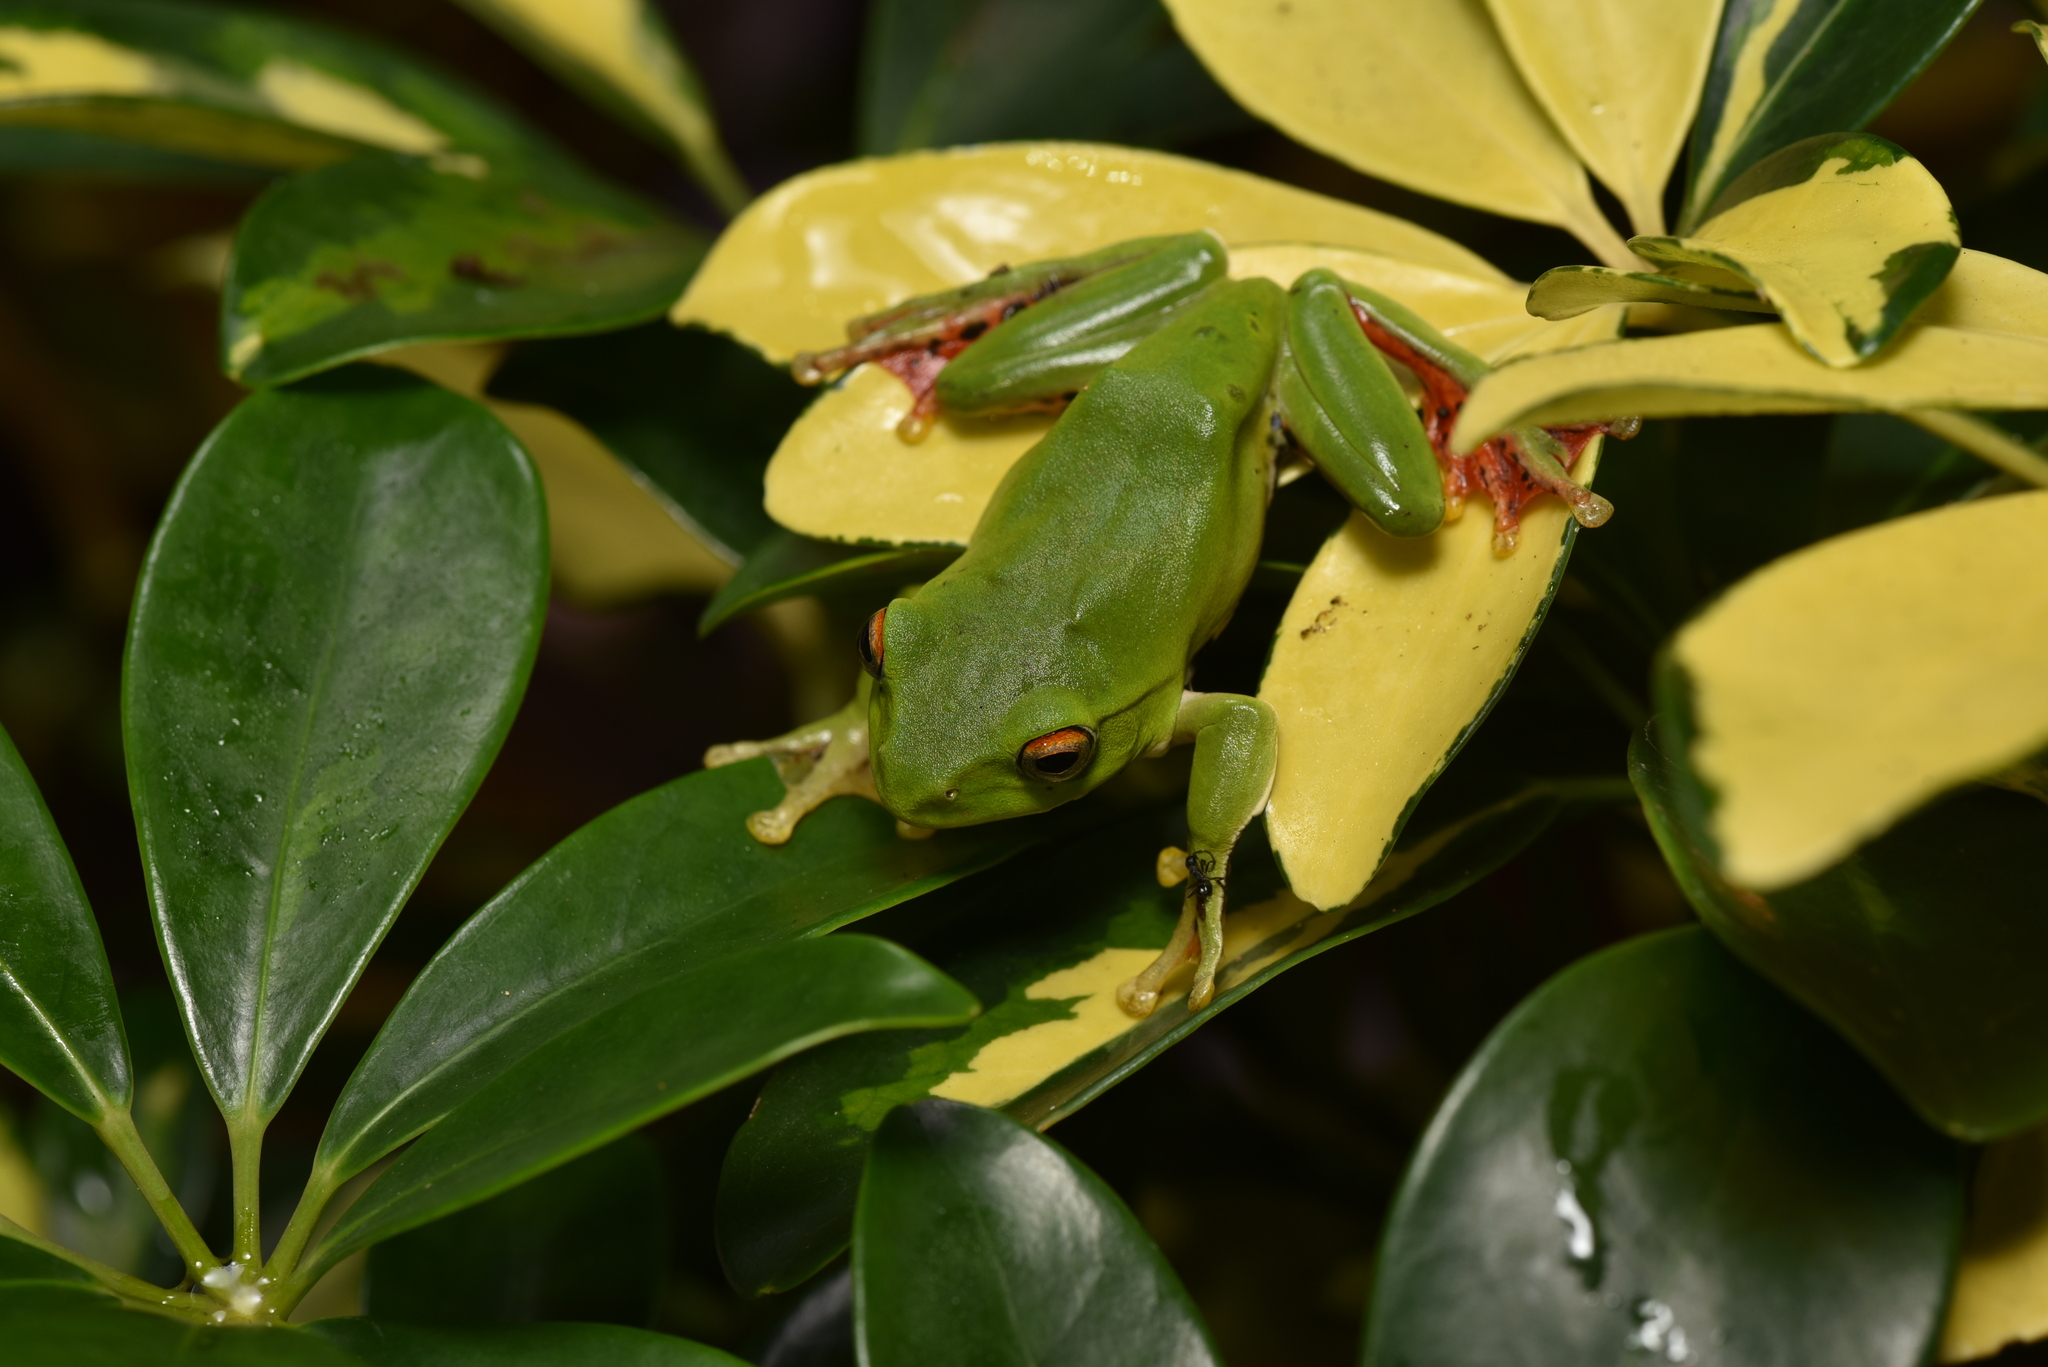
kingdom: Animalia
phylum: Chordata
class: Amphibia
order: Anura
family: Rhacophoridae
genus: Zhangixalus
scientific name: Zhangixalus moltrechti
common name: Moltrecht's treefrog
